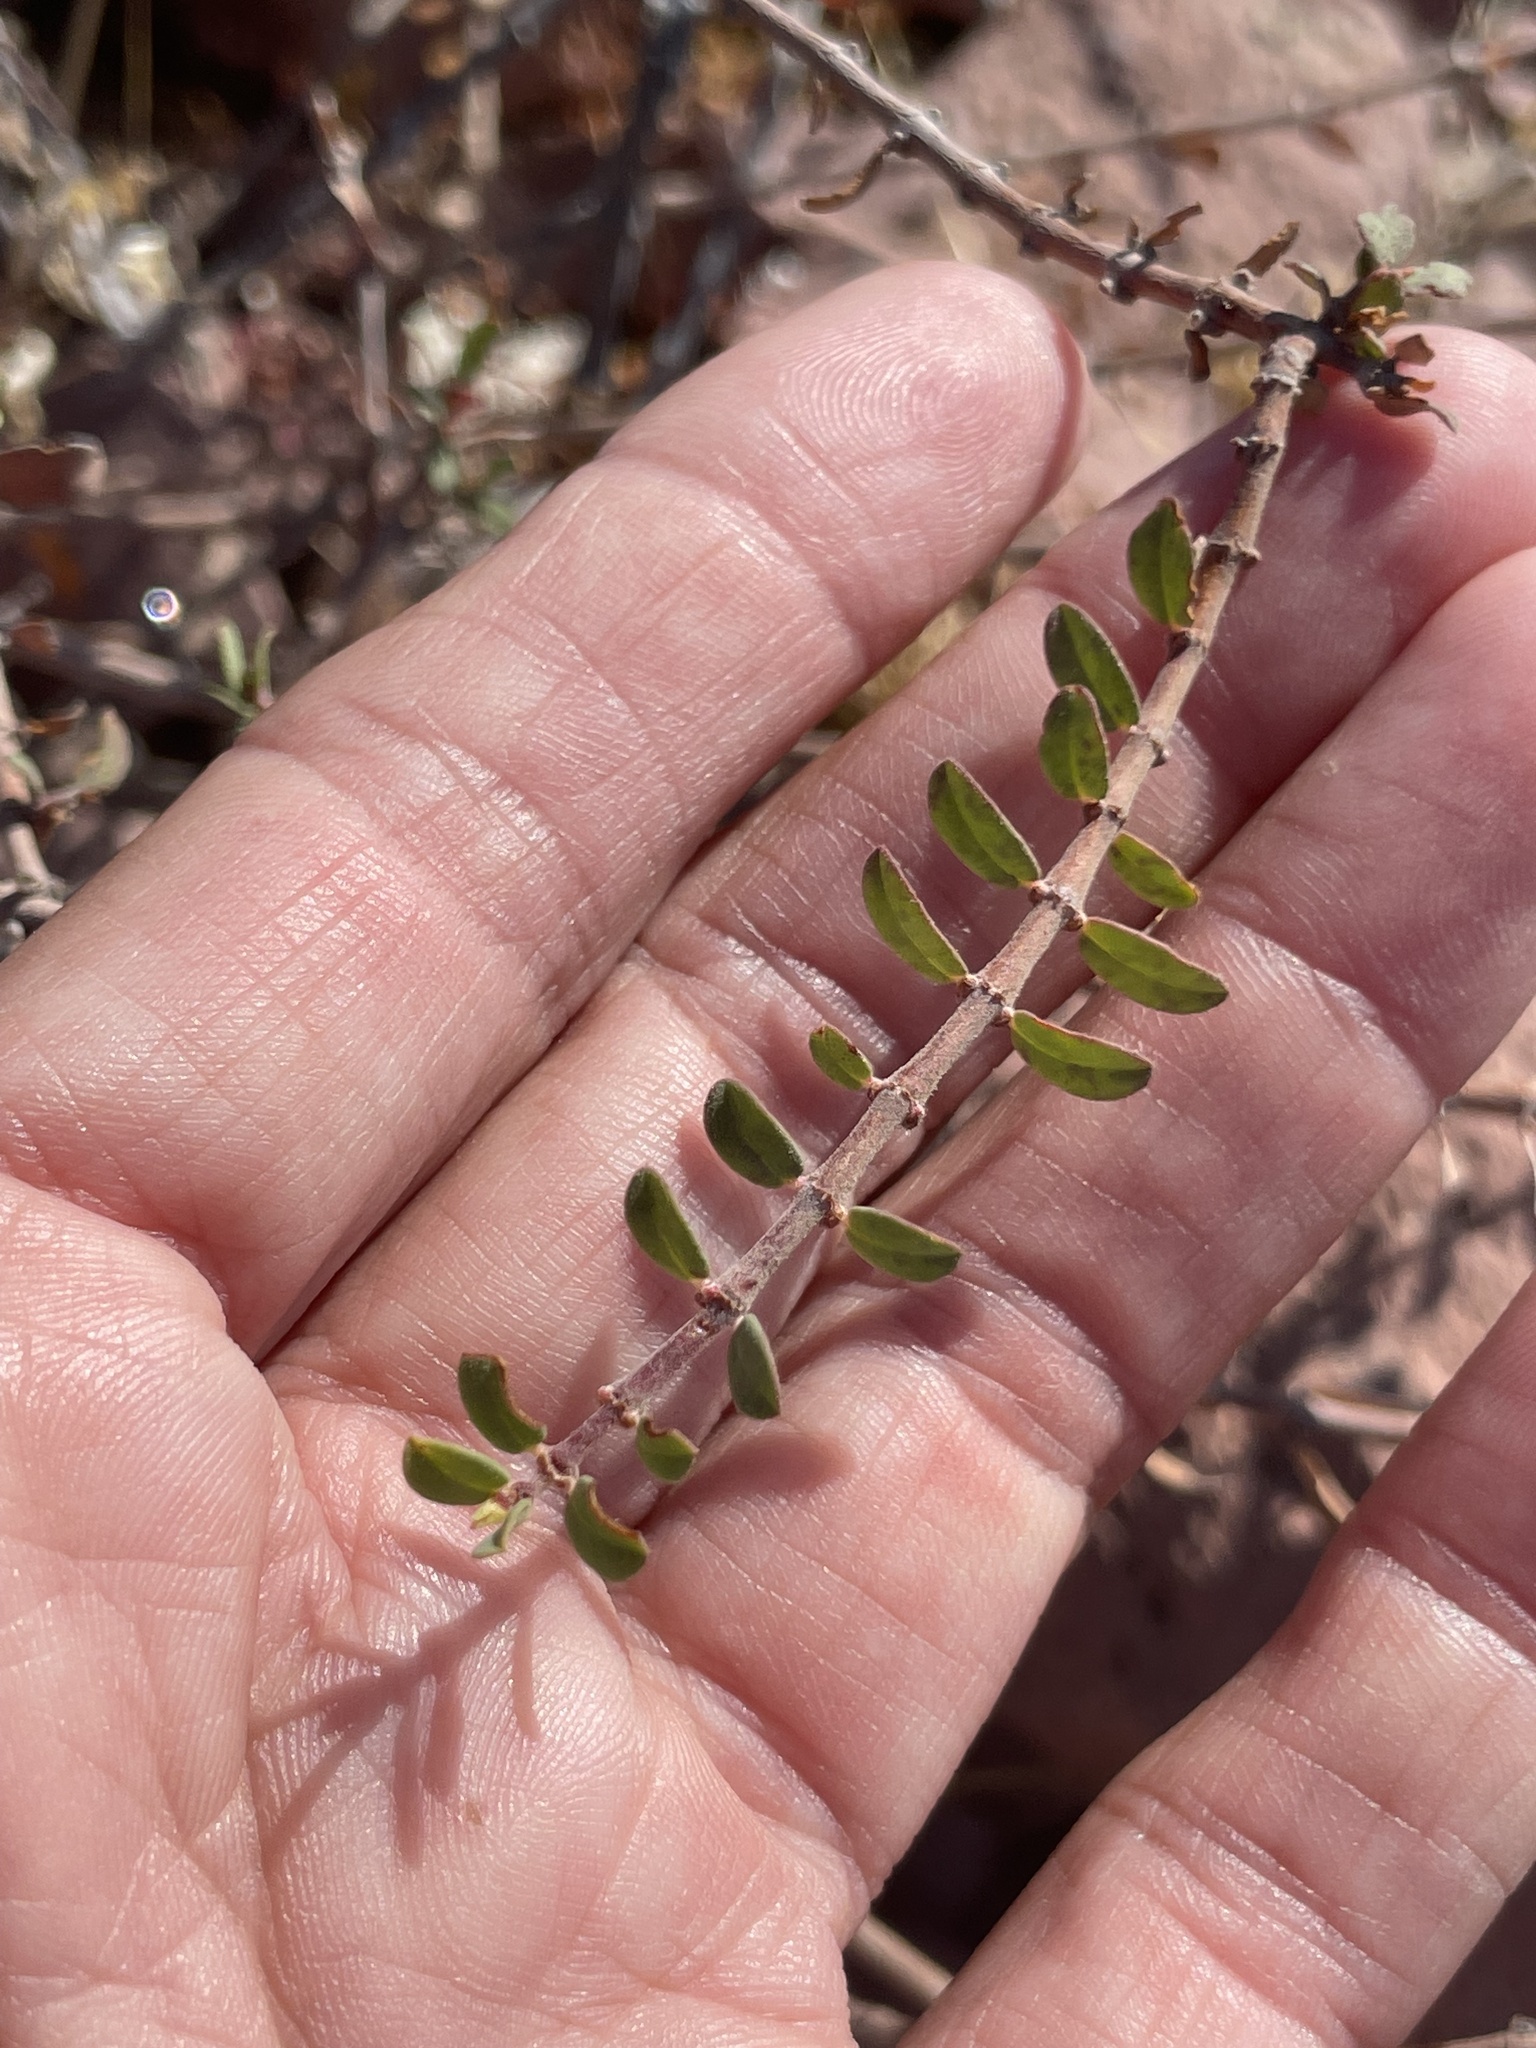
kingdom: Plantae
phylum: Tracheophyta
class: Magnoliopsida
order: Malpighiales
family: Euphorbiaceae
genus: Euphorbia
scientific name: Euphorbia magdalenae
